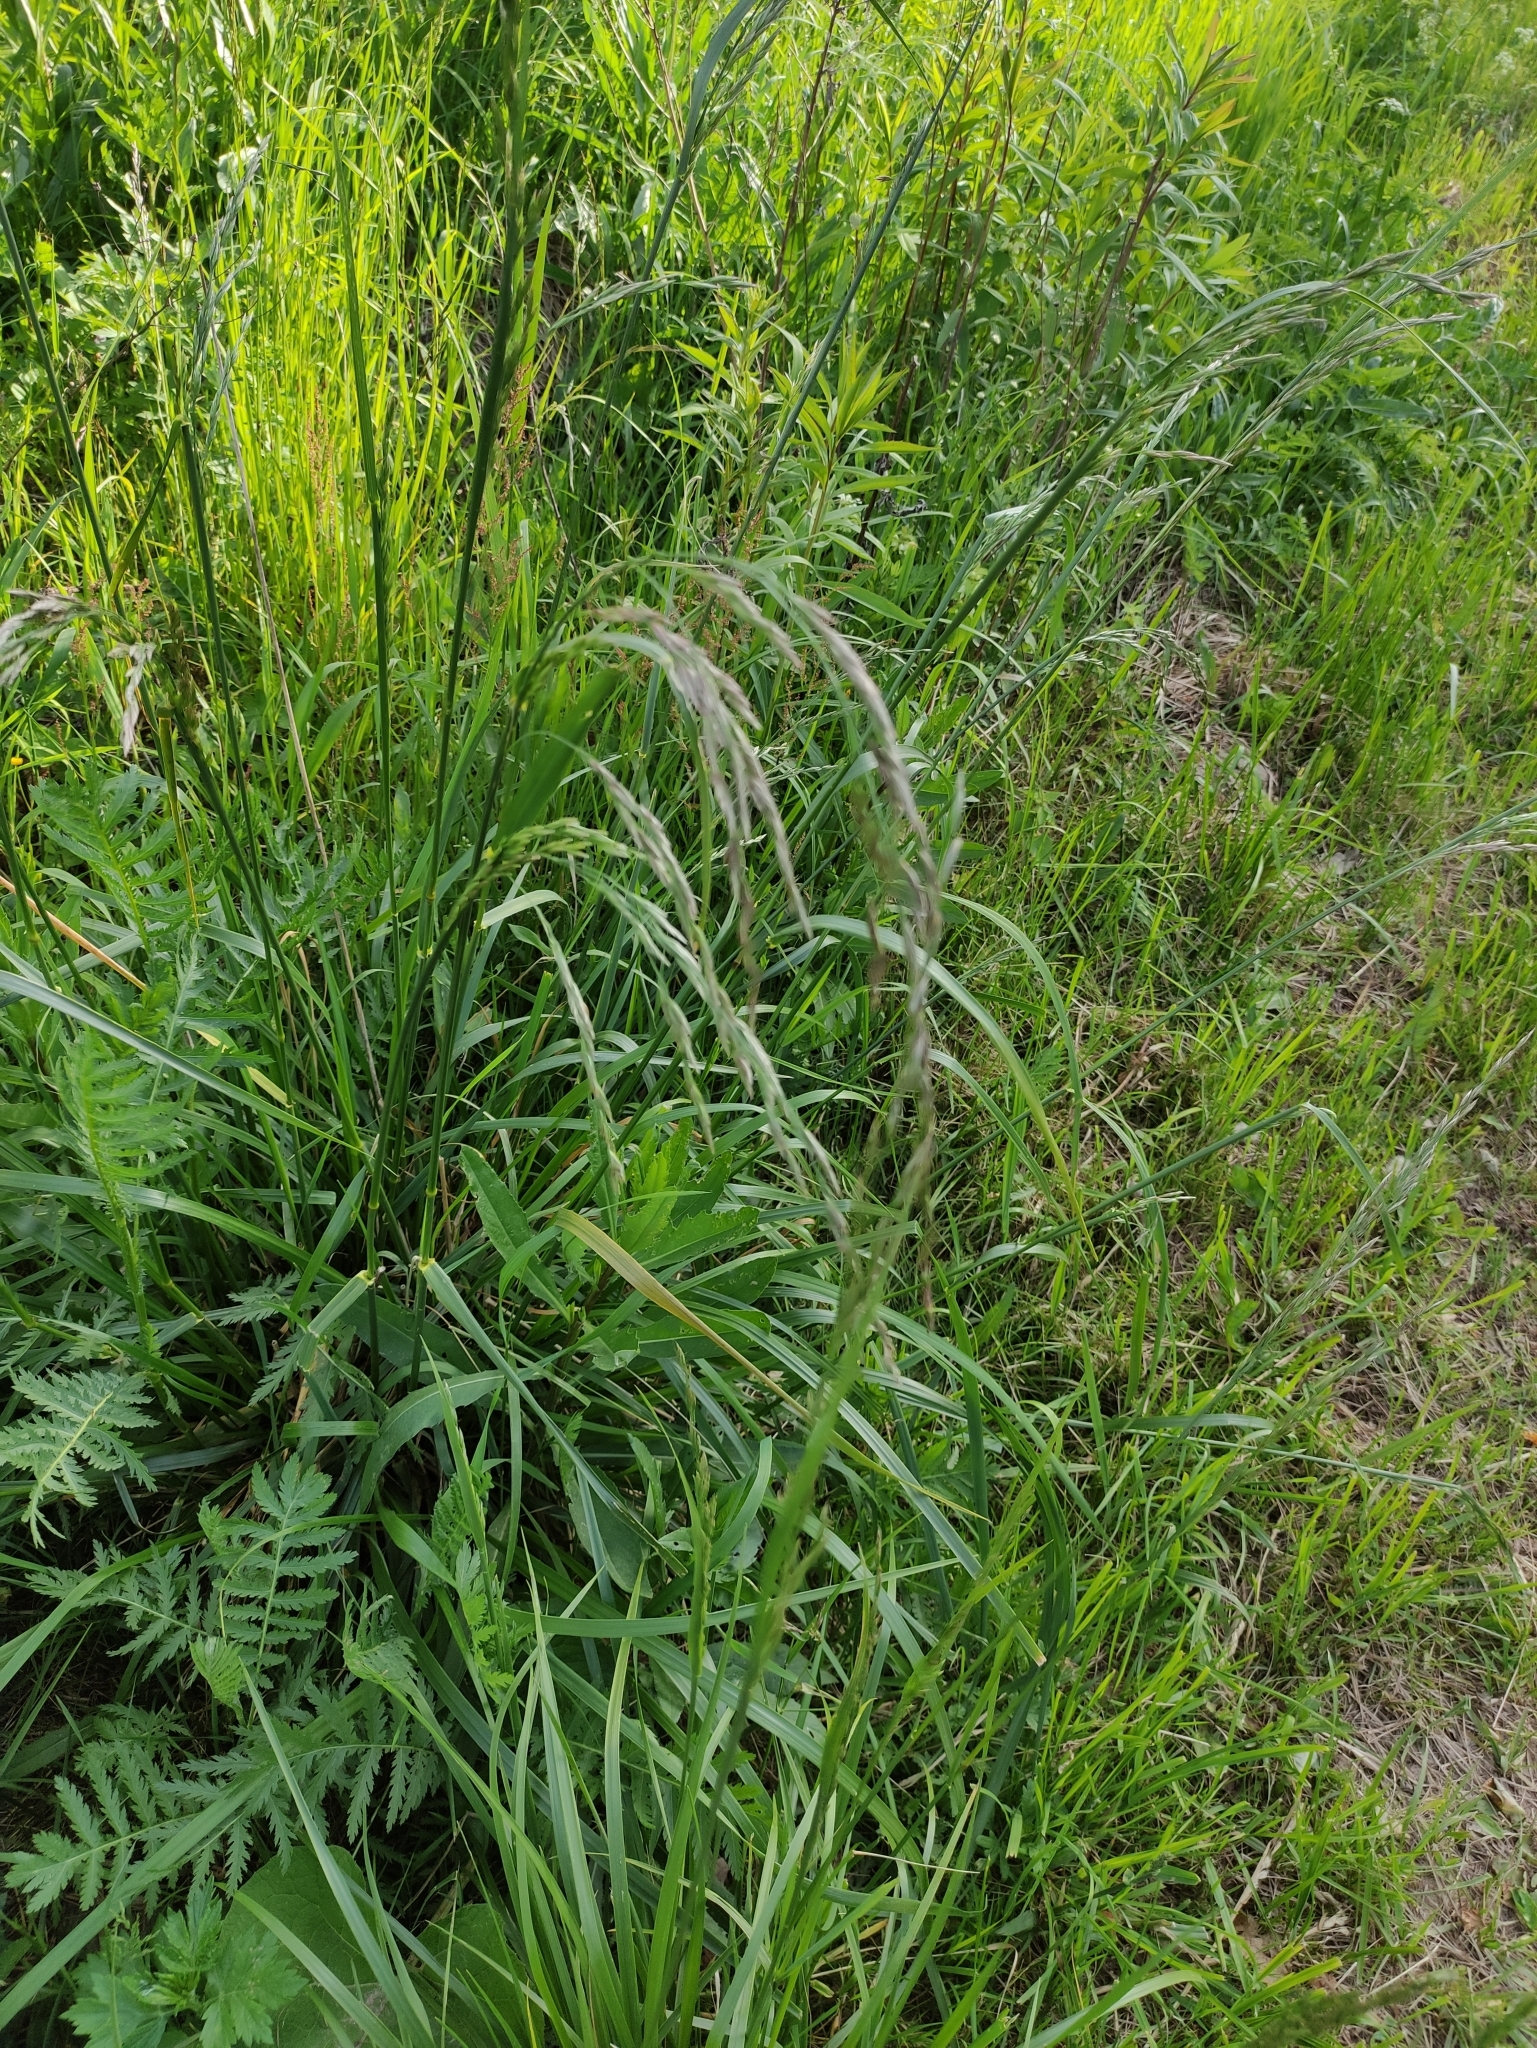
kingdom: Plantae
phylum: Tracheophyta
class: Liliopsida
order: Poales
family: Poaceae
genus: Lolium
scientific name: Lolium arundinaceum
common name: Reed fescue
